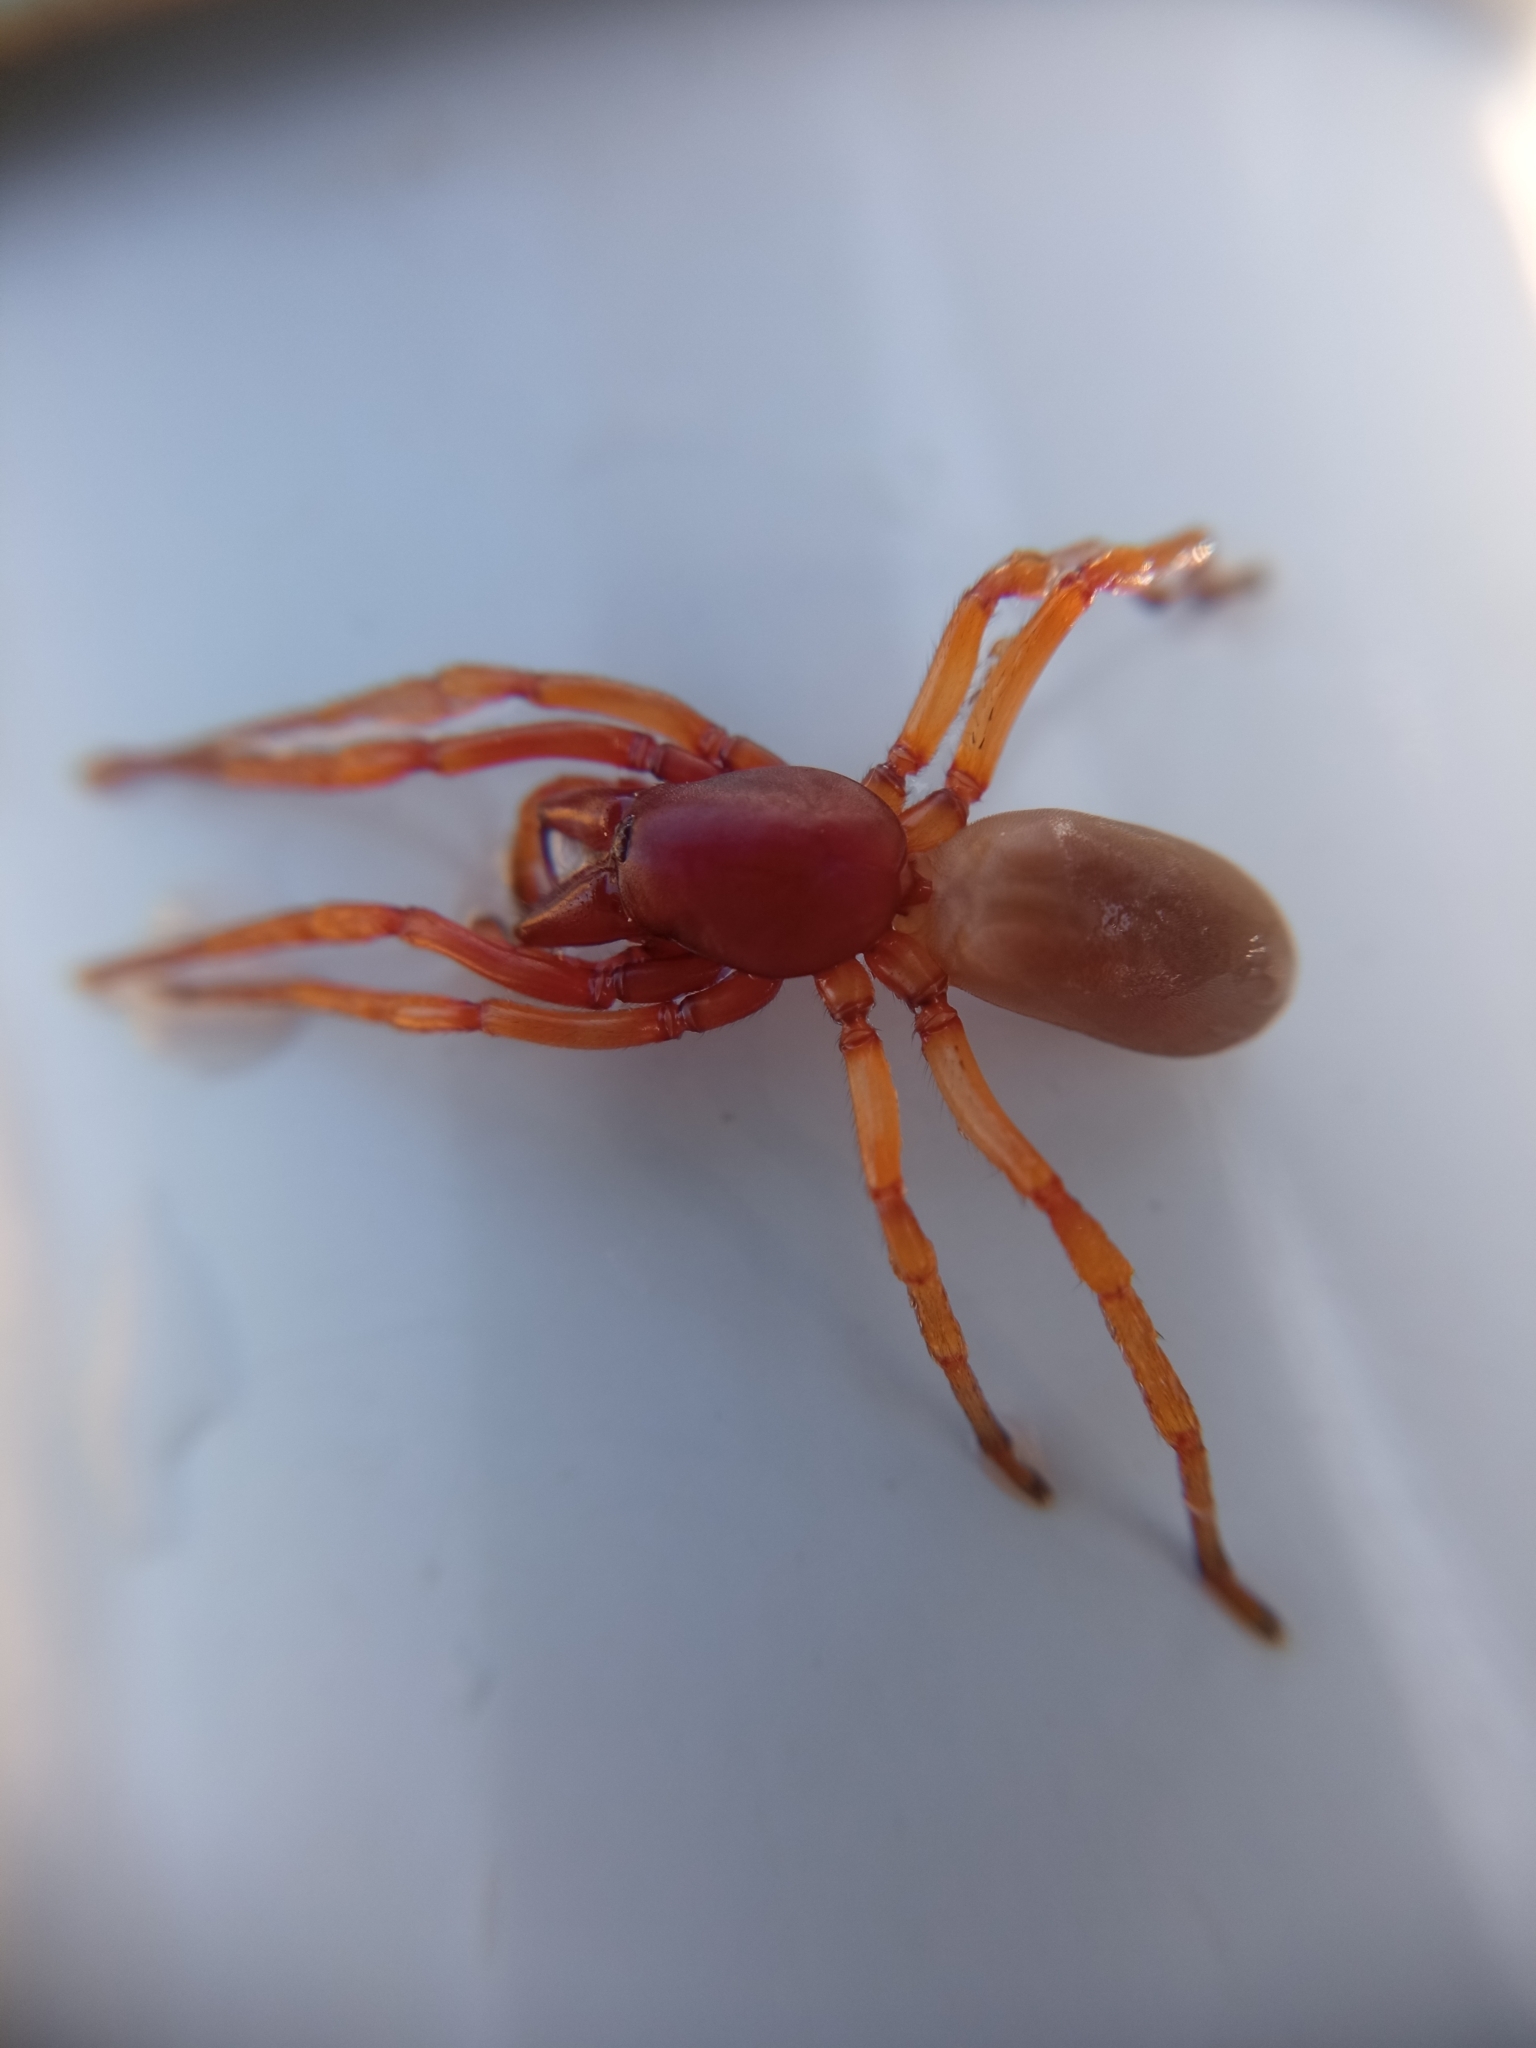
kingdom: Animalia
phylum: Arthropoda
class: Arachnida
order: Araneae
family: Dysderidae
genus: Dysdera
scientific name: Dysdera crocata
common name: Woodlouse spider
